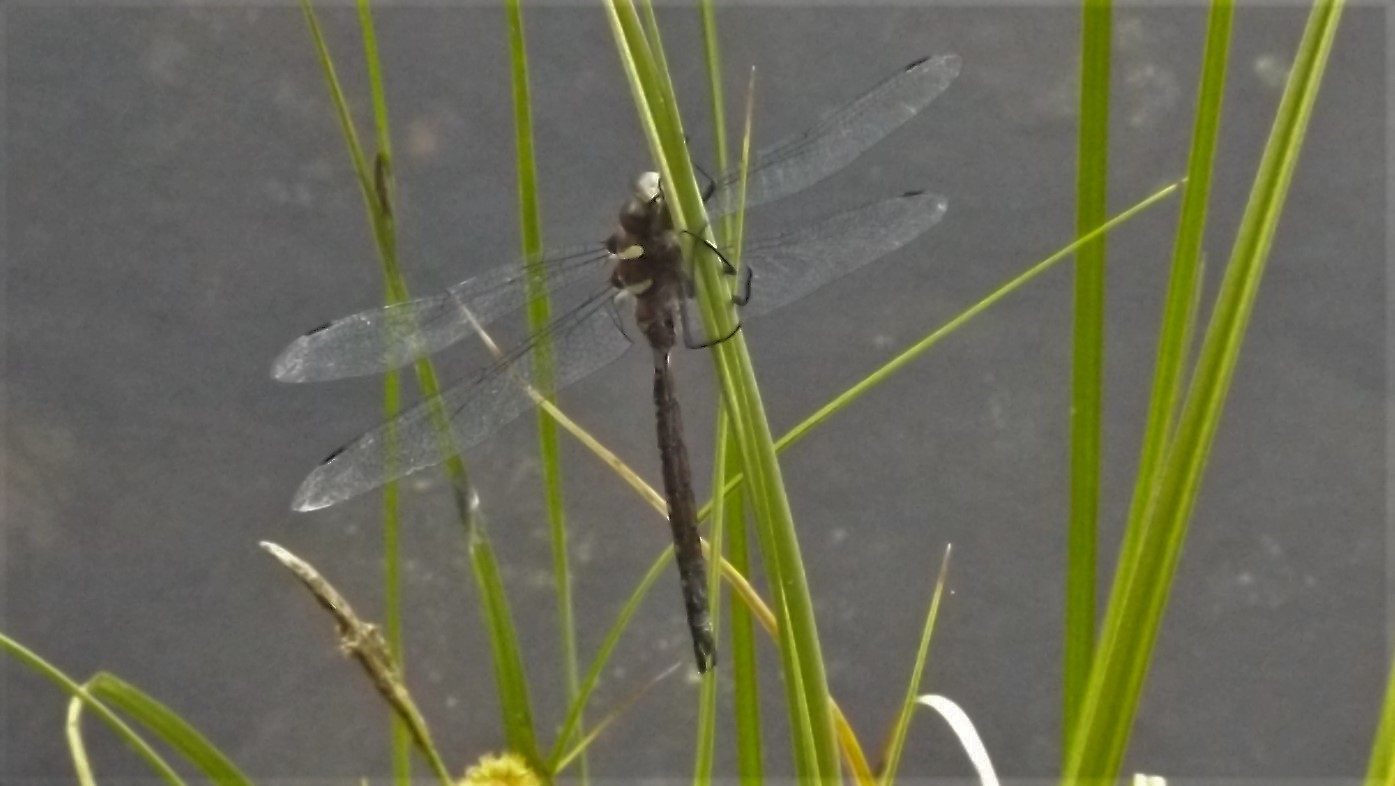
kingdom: Animalia
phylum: Arthropoda
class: Insecta
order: Odonata
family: Aeshnidae
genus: Aeshna
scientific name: Aeshna tuberculifera
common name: Aeschne à tubercules
